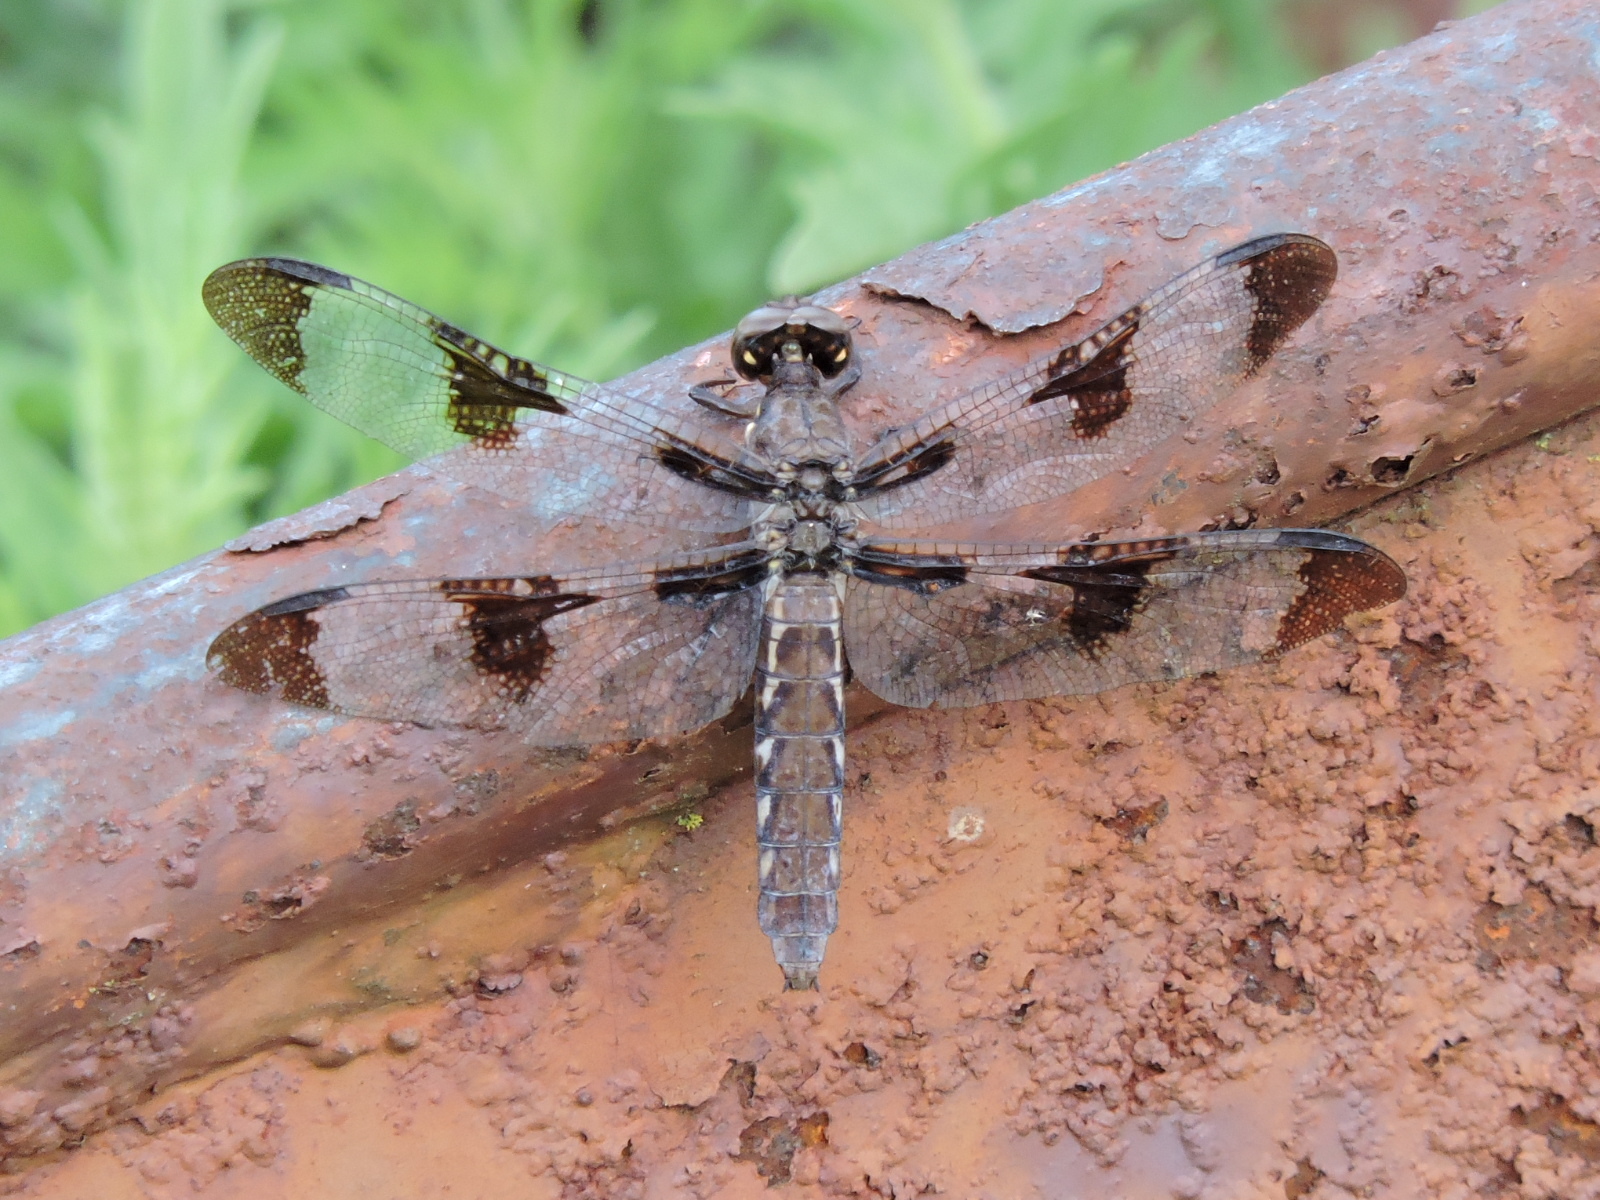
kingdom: Animalia
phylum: Arthropoda
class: Insecta
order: Odonata
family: Libellulidae
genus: Plathemis
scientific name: Plathemis lydia
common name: Common whitetail
